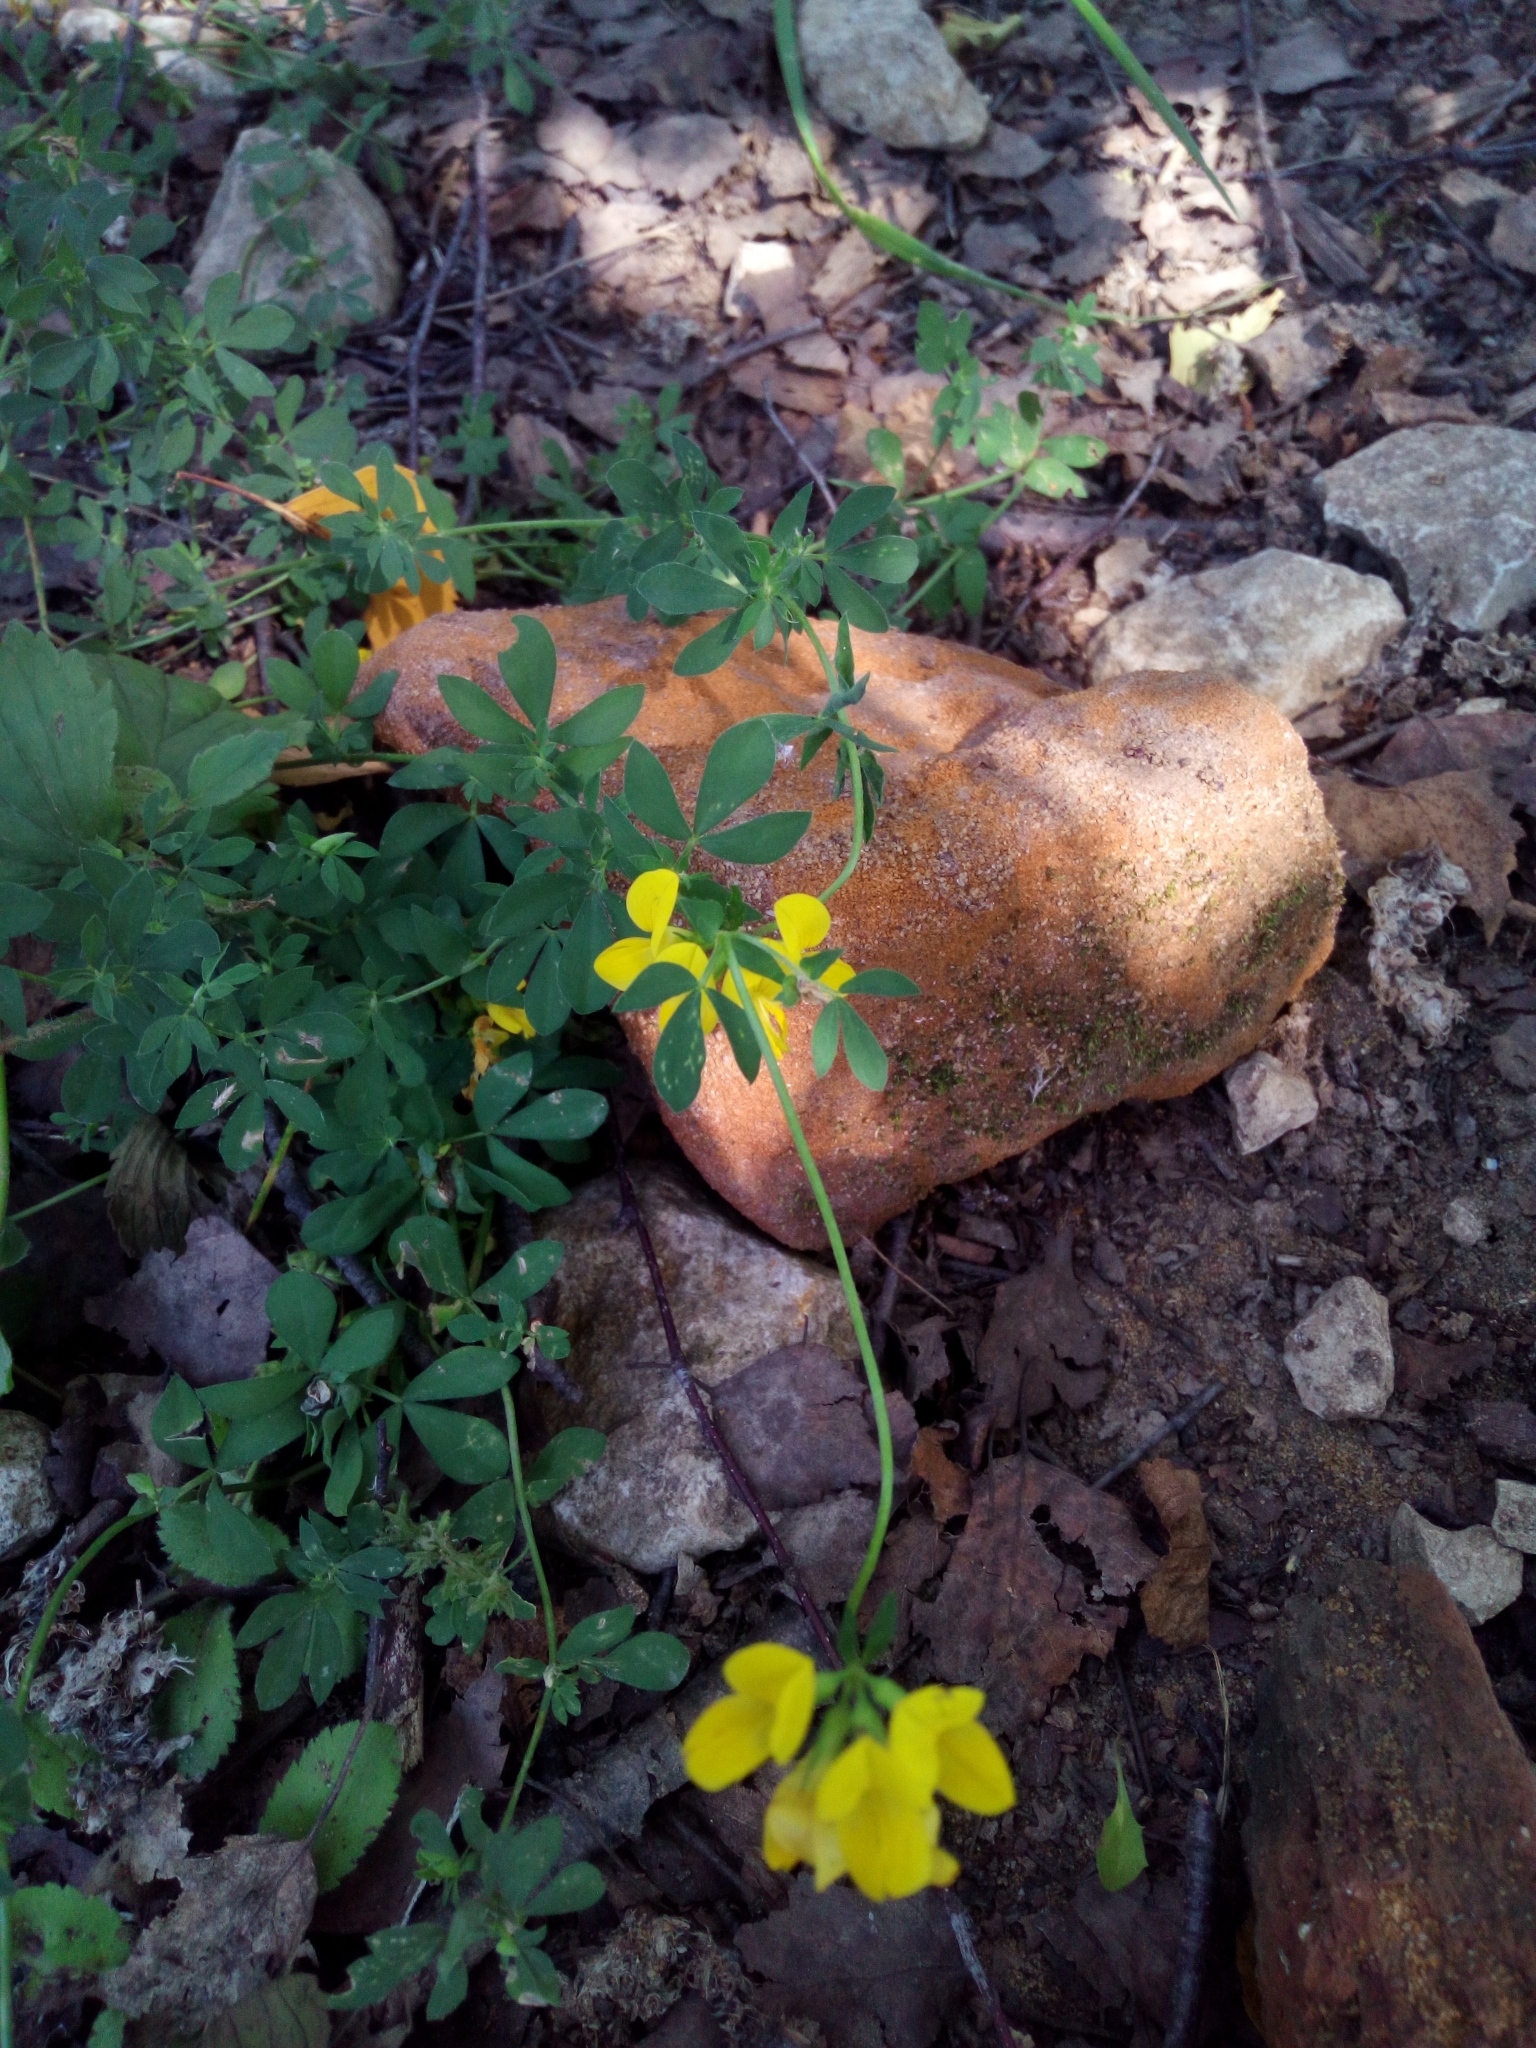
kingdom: Plantae
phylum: Tracheophyta
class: Magnoliopsida
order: Fabales
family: Fabaceae
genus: Lotus
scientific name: Lotus corniculatus
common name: Common bird's-foot-trefoil
